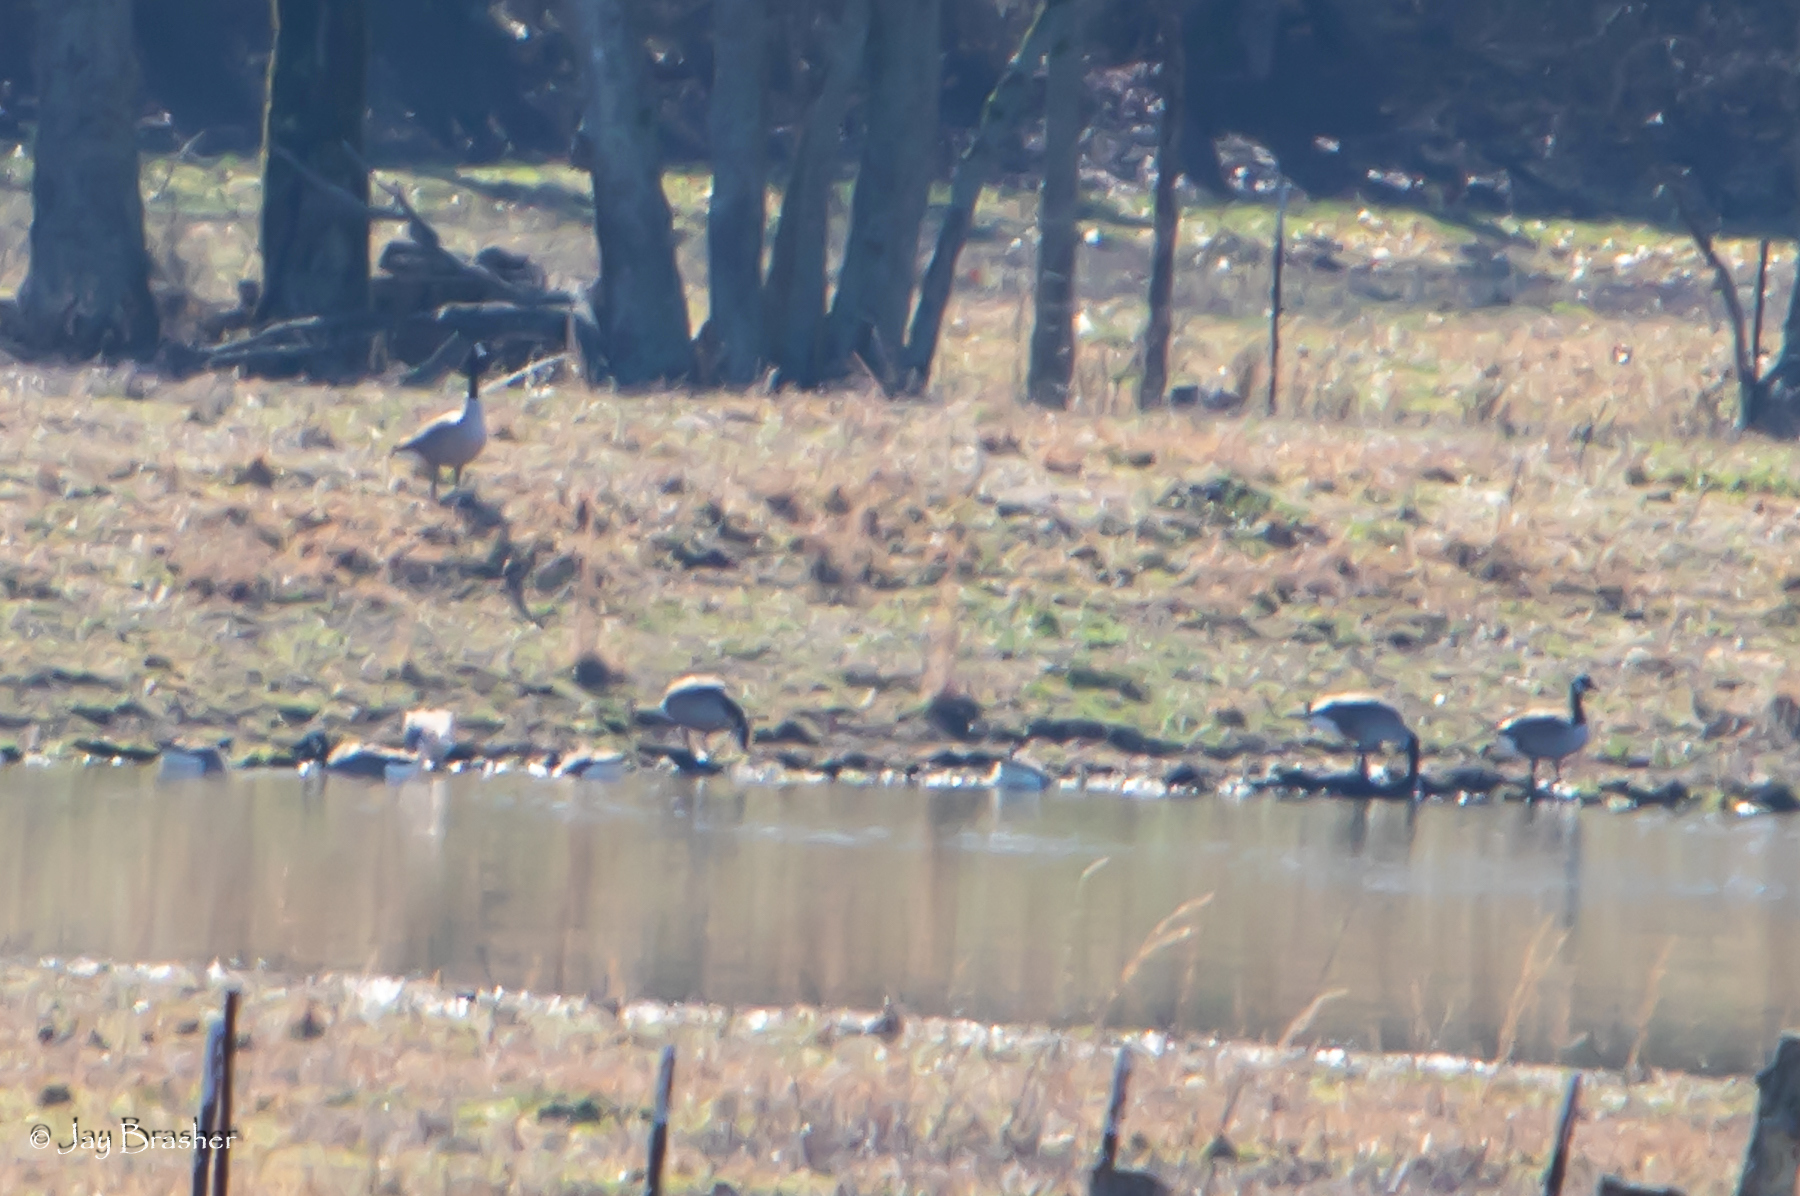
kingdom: Animalia
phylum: Chordata
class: Aves
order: Anseriformes
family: Anatidae
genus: Branta
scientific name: Branta canadensis
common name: Canada goose
